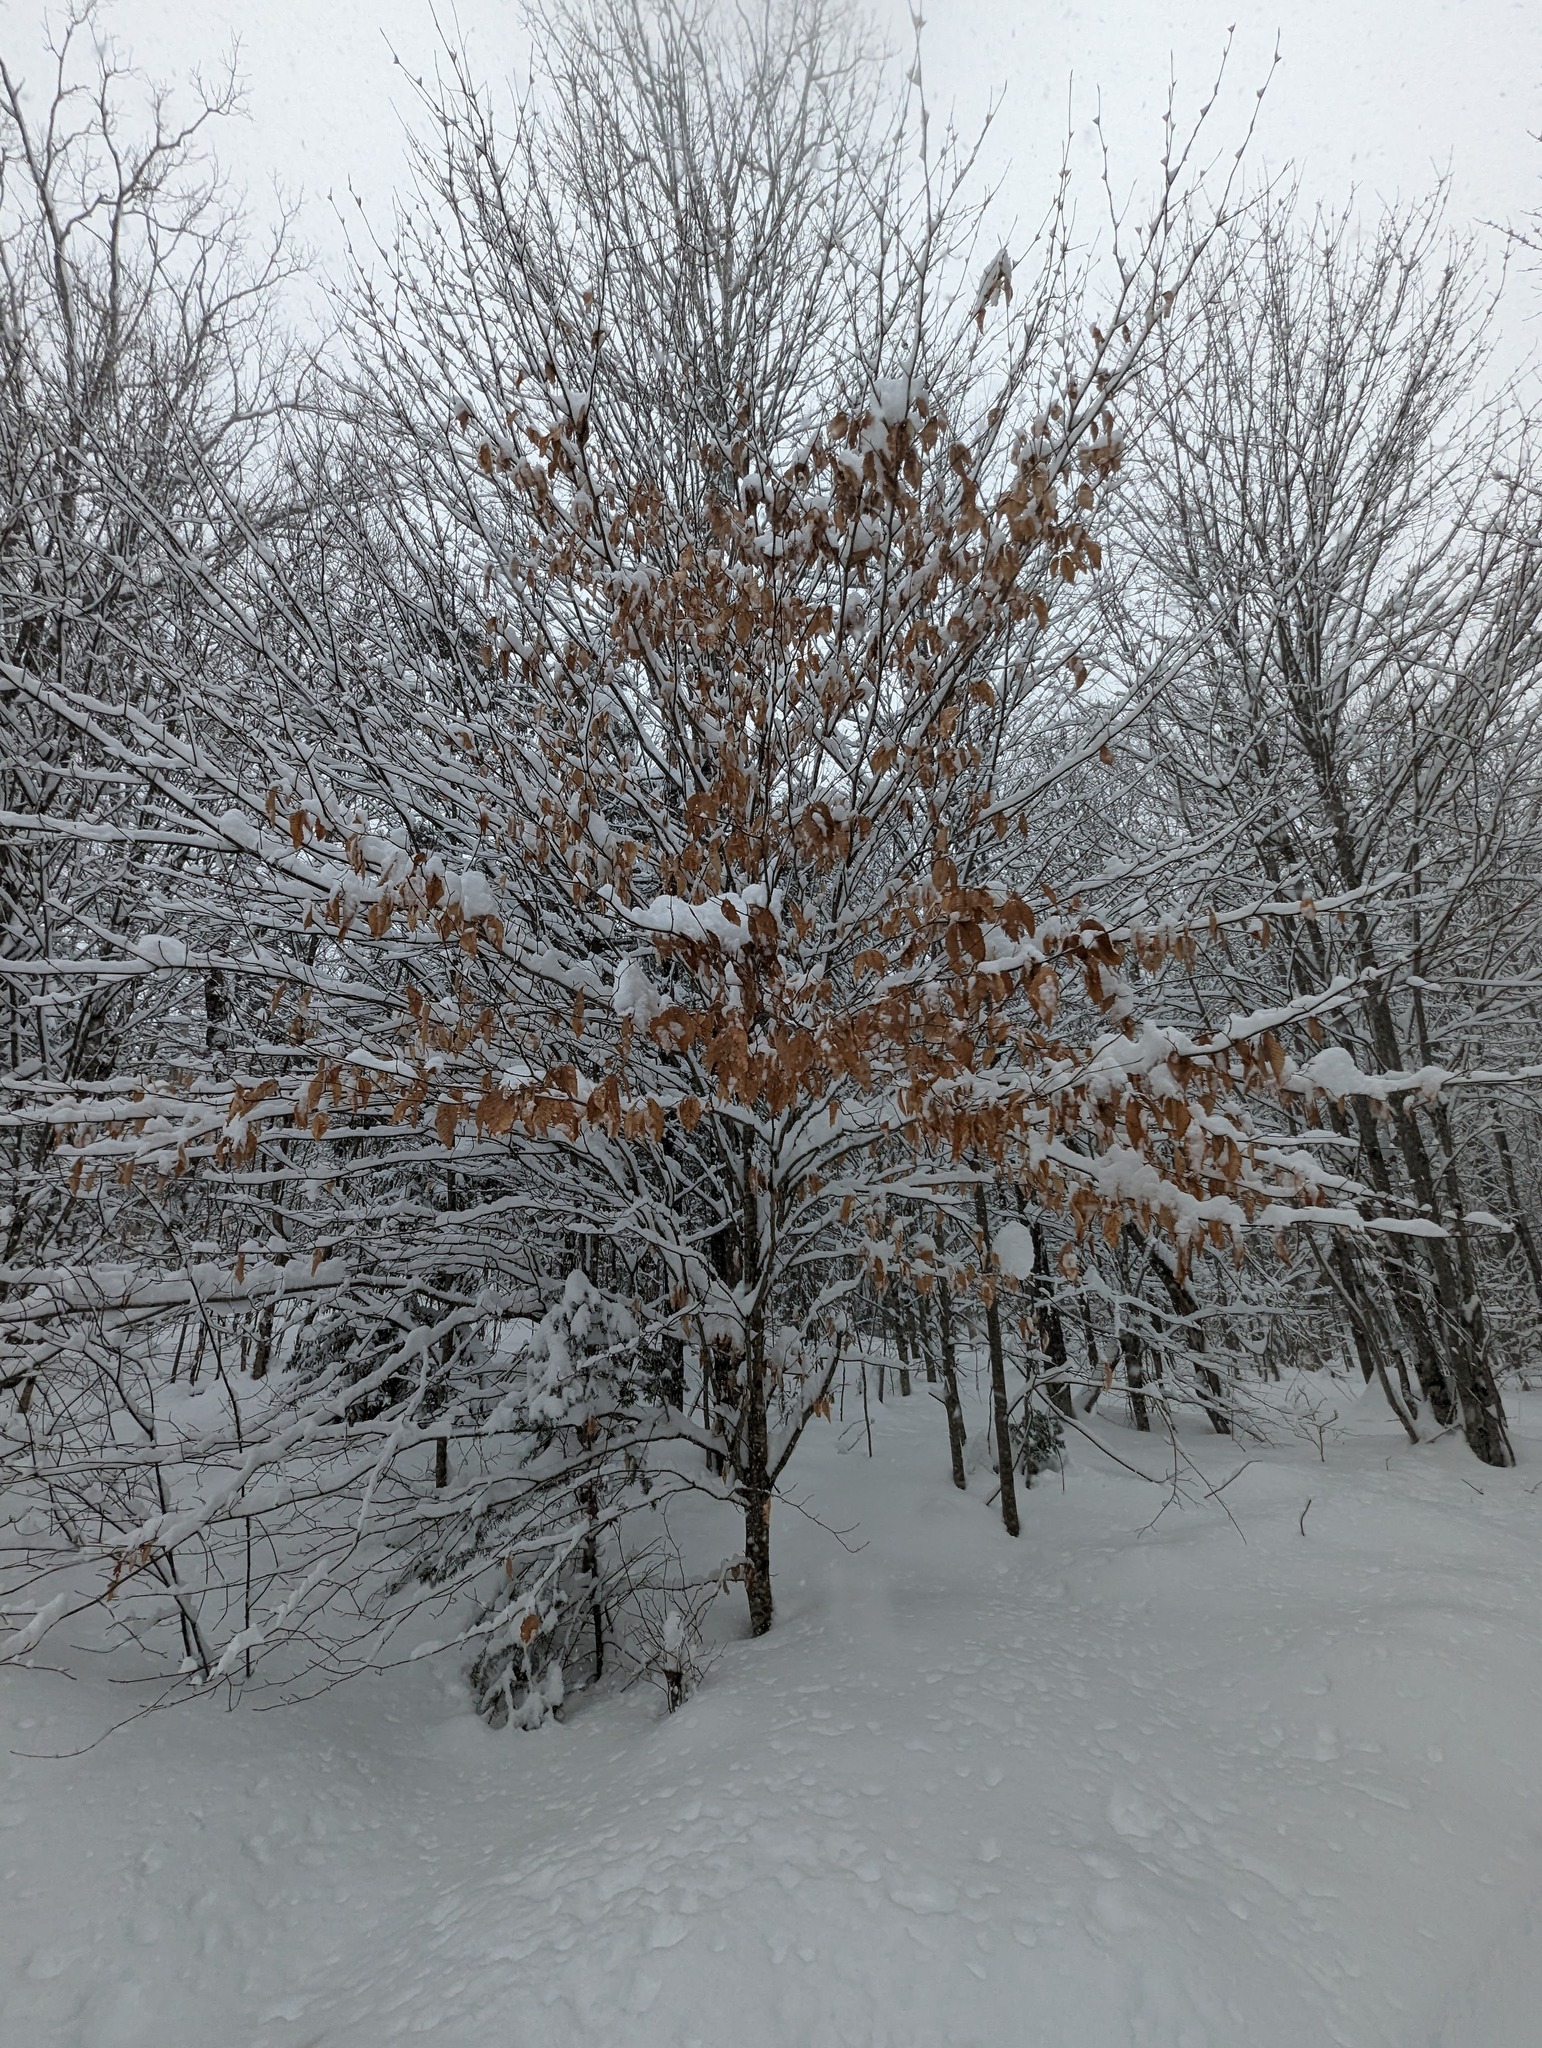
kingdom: Plantae
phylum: Tracheophyta
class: Magnoliopsida
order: Fagales
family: Fagaceae
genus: Fagus
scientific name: Fagus grandifolia
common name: American beech
